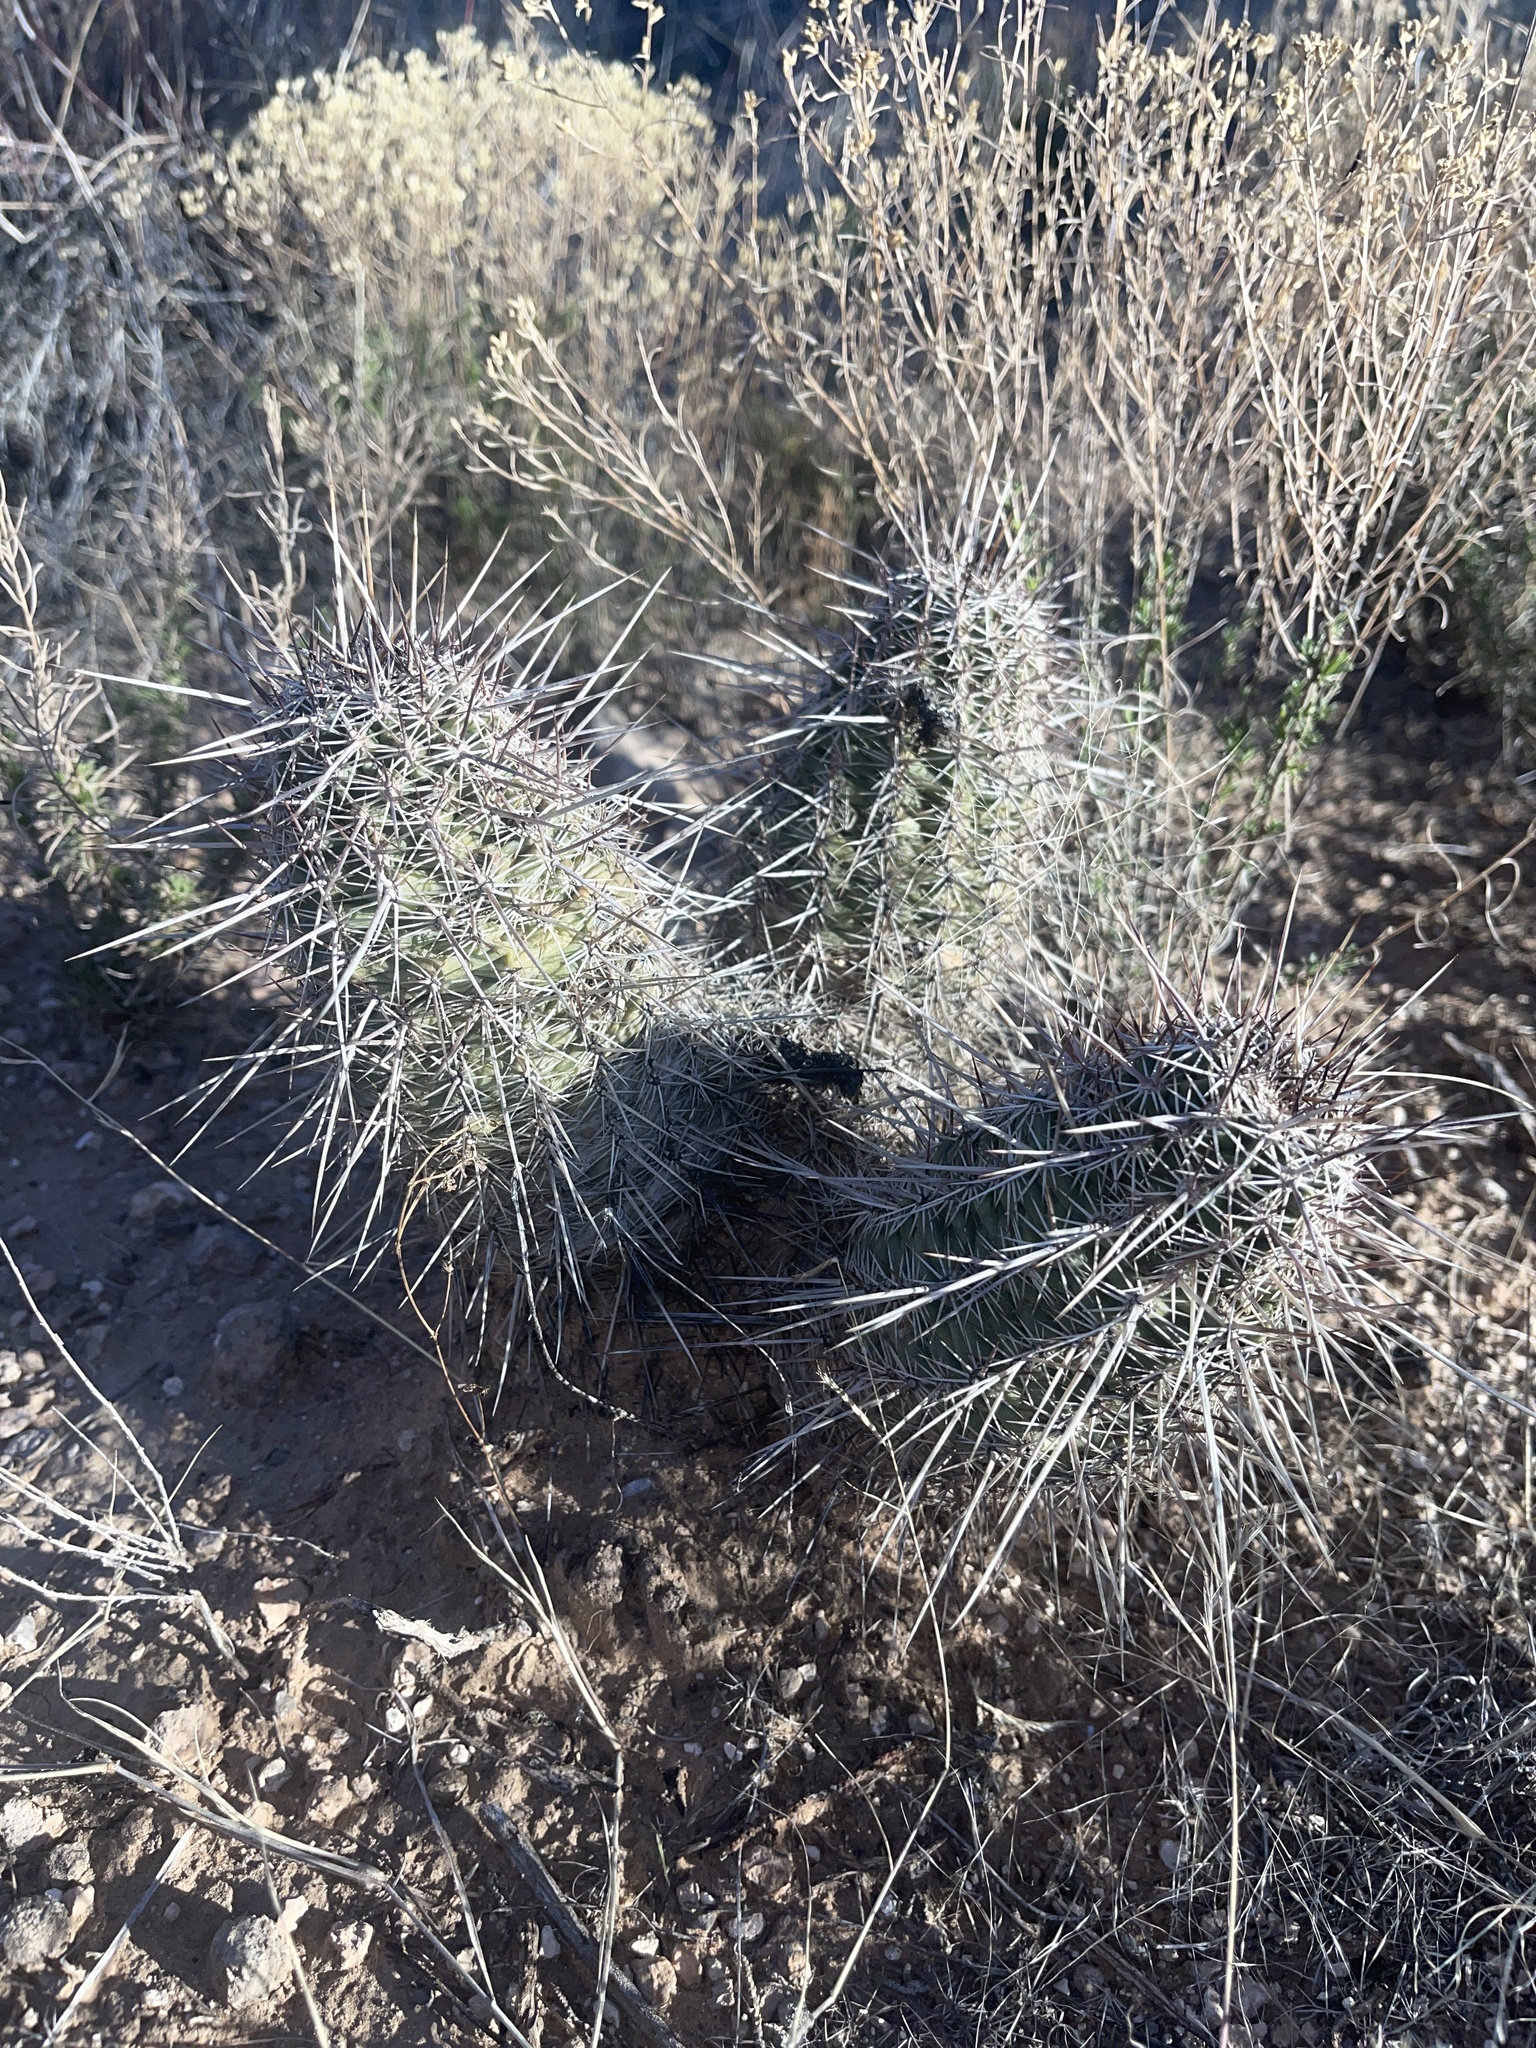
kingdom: Plantae
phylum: Tracheophyta
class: Magnoliopsida
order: Caryophyllales
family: Cactaceae
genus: Echinocereus
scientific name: Echinocereus fasciculatus
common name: Bundle hedgehog
